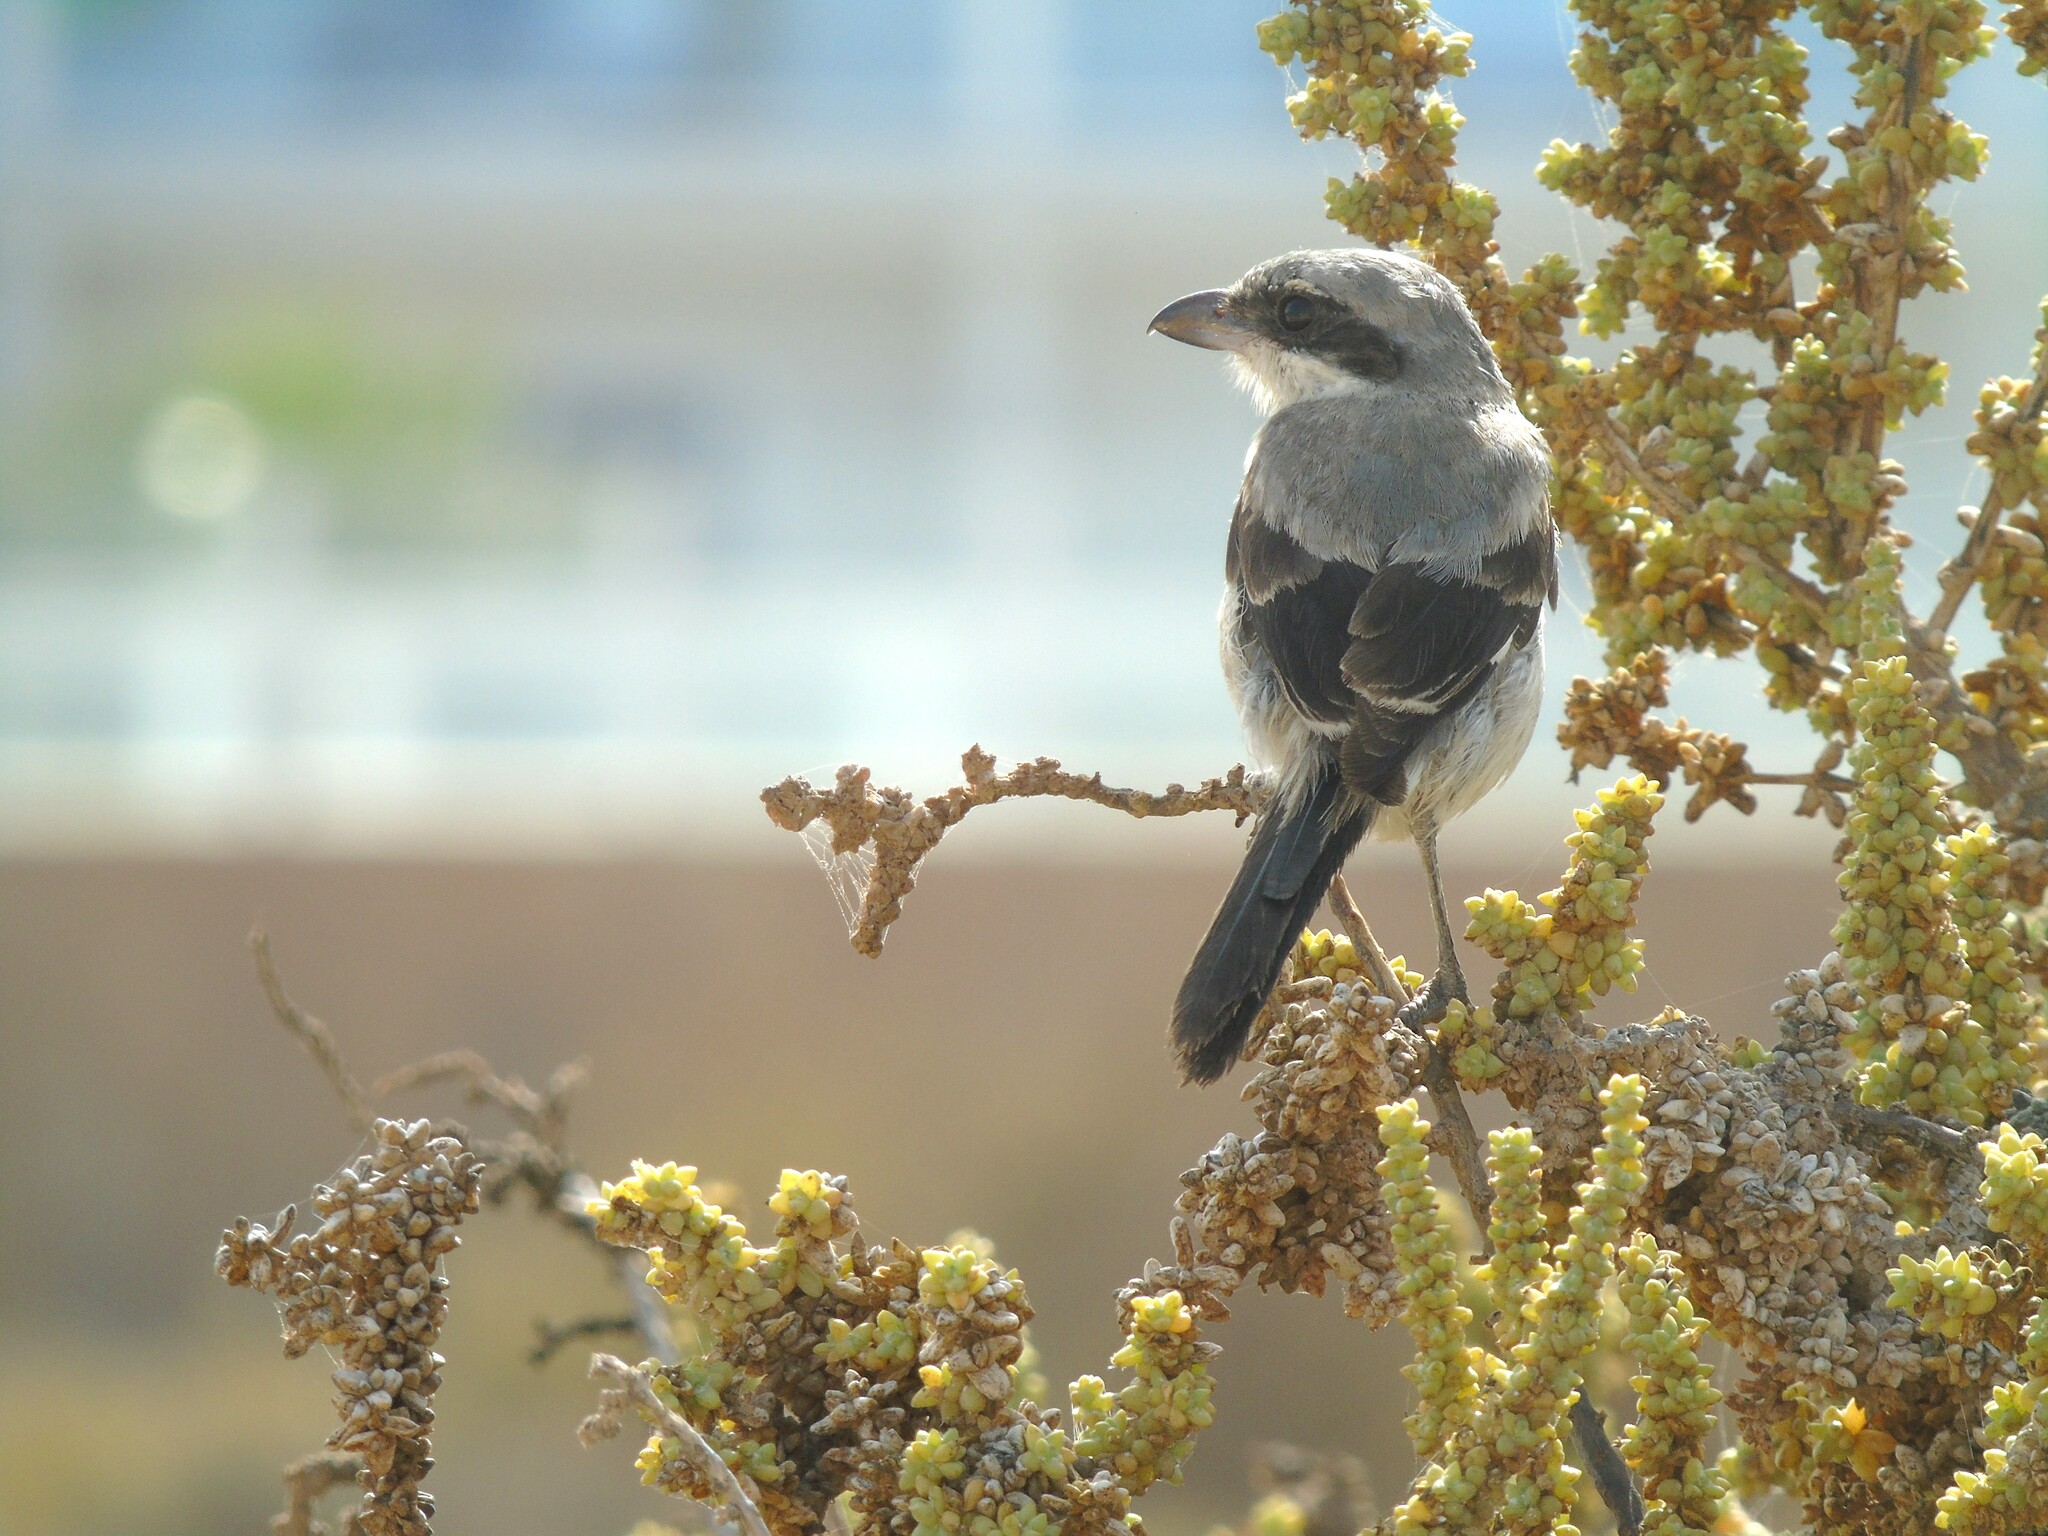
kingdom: Animalia
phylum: Chordata
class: Aves
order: Passeriformes
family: Laniidae
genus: Lanius
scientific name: Lanius excubitor
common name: Great grey shrike
